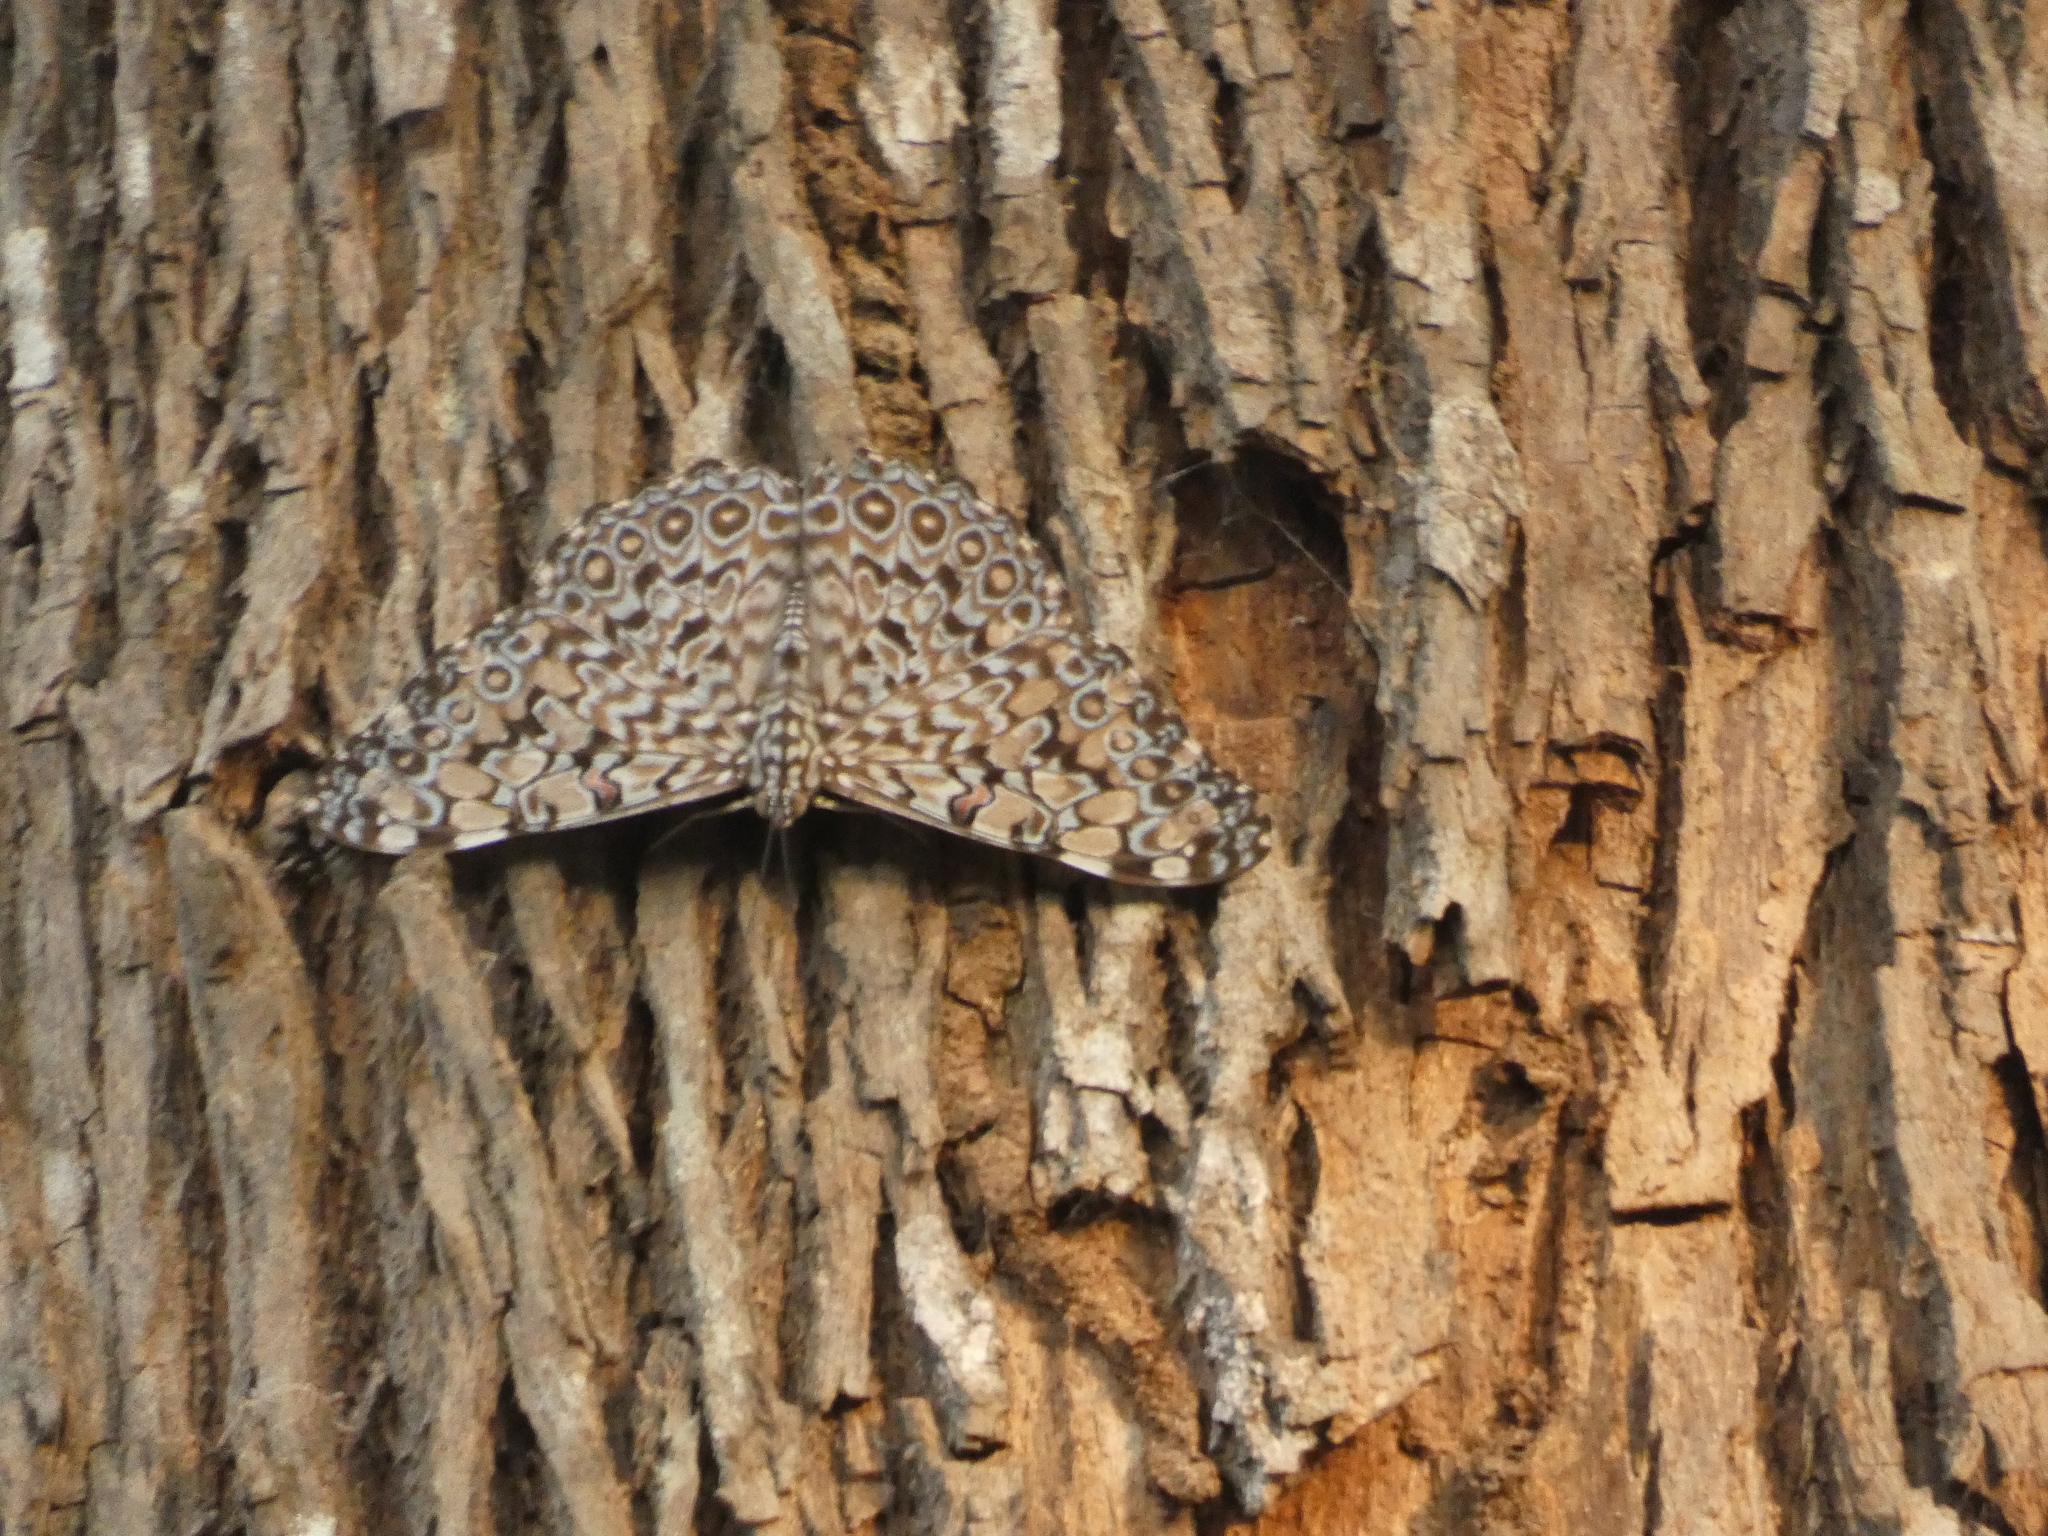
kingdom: Animalia
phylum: Arthropoda
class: Insecta
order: Lepidoptera
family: Nymphalidae
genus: Hamadryas
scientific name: Hamadryas feronia
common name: Variable cracker
